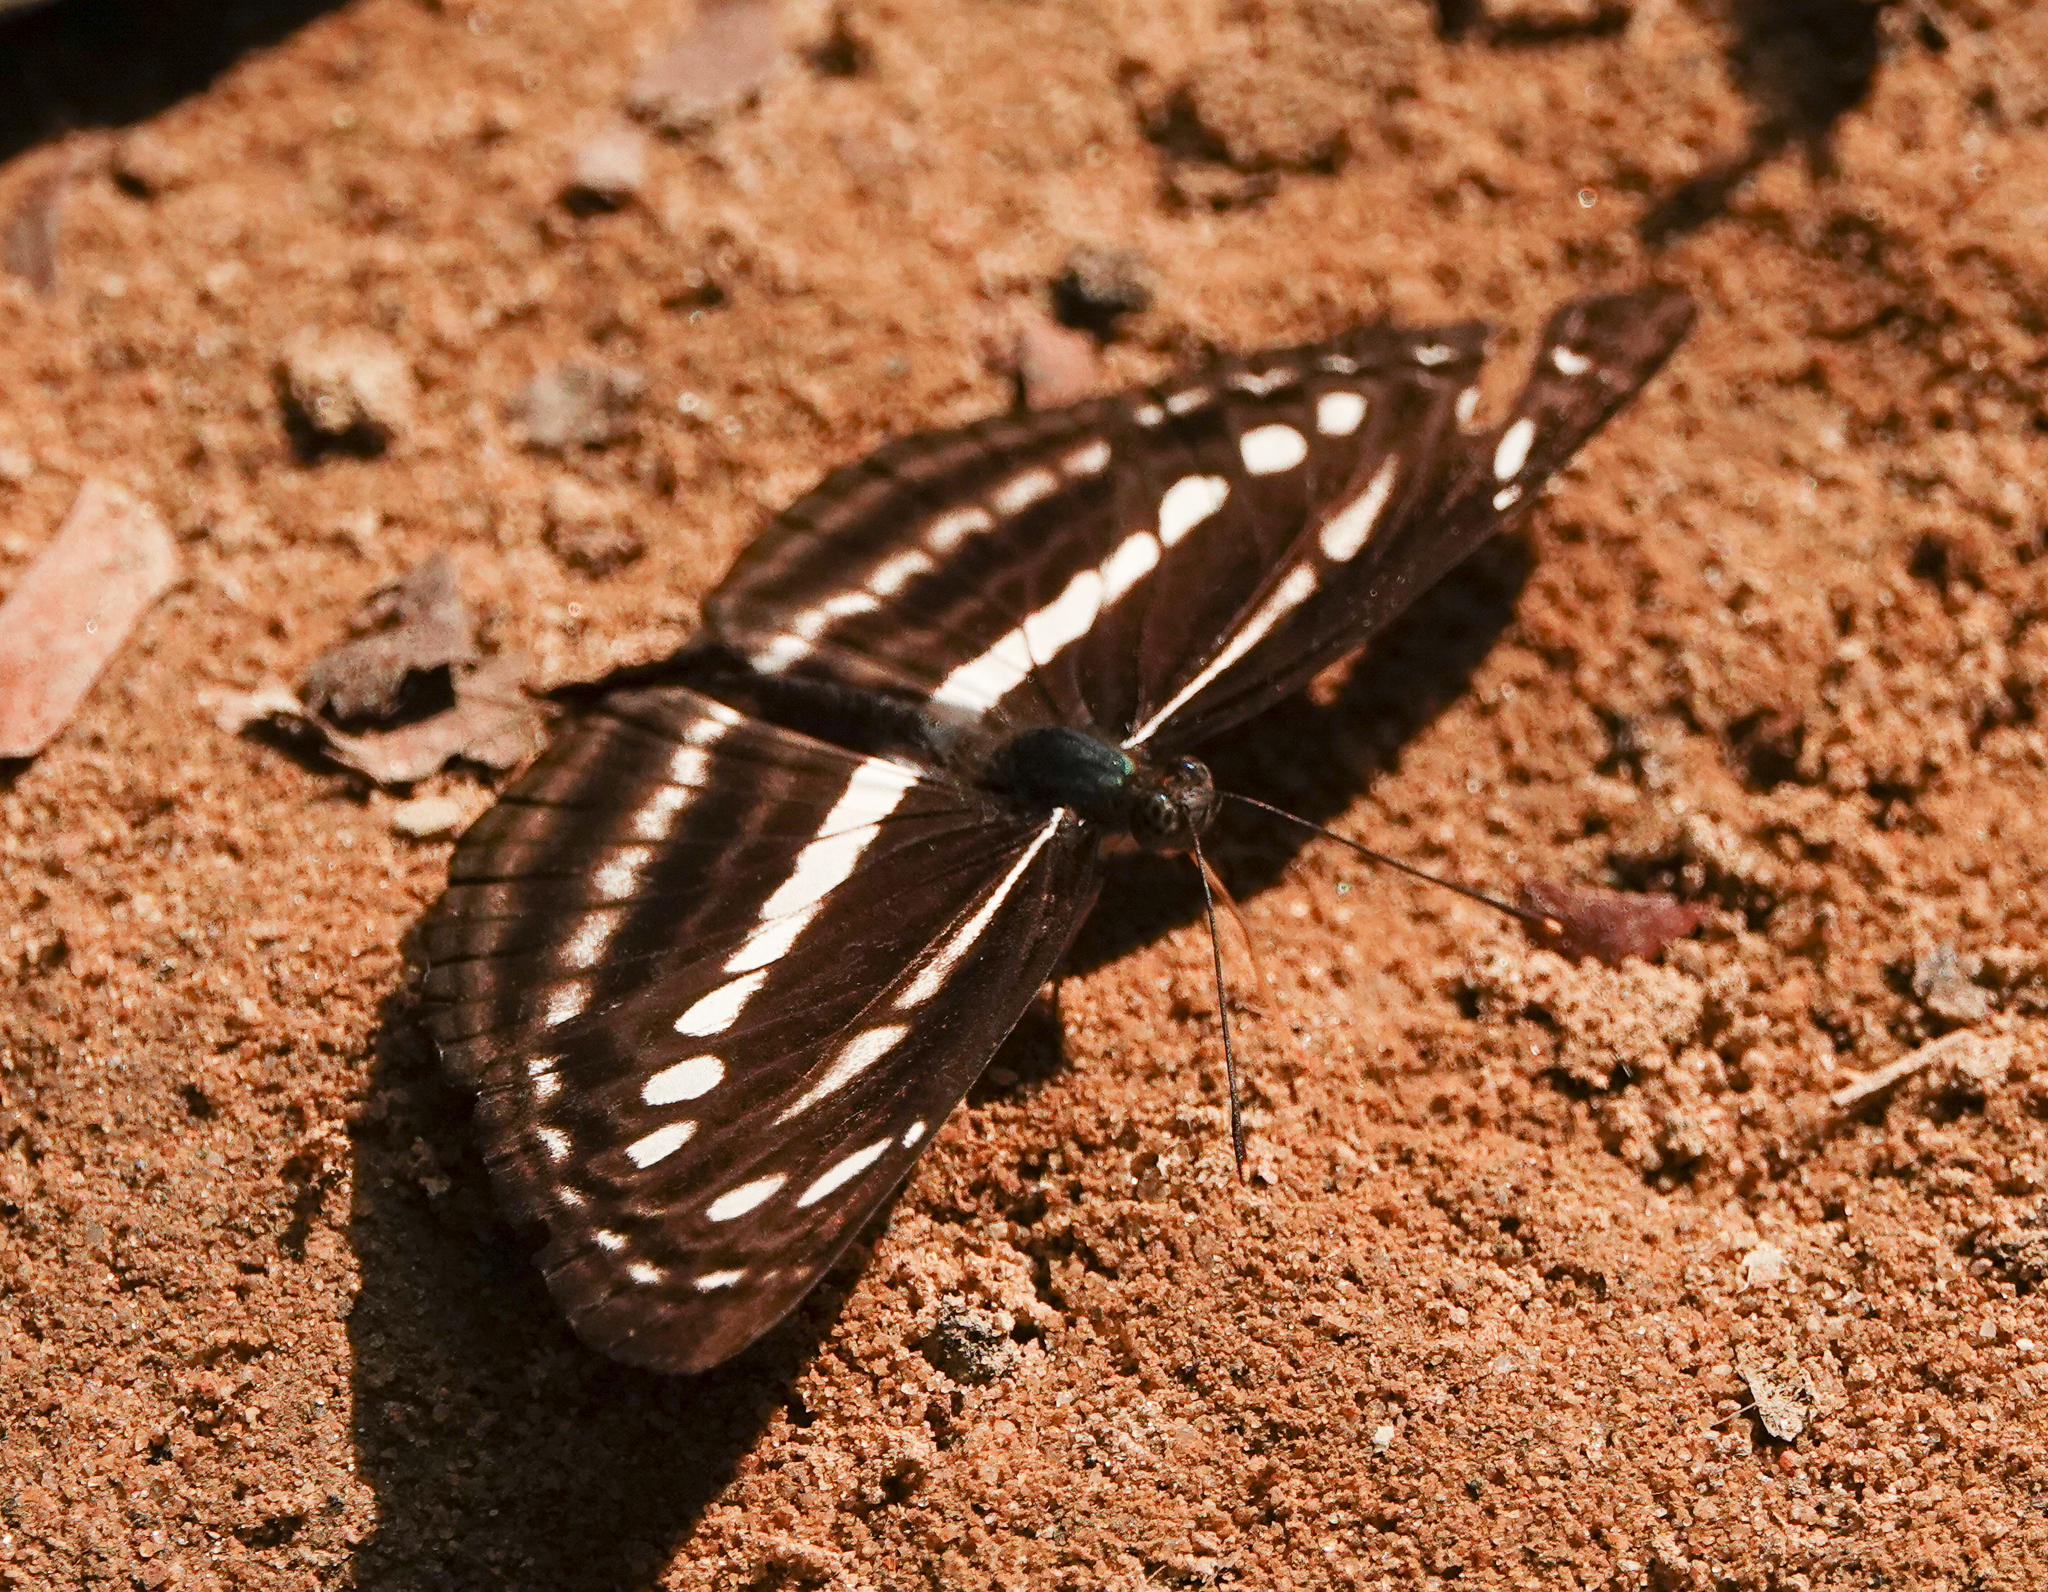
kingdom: Animalia
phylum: Arthropoda
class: Insecta
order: Lepidoptera
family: Nymphalidae
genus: Neptis
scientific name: Neptis clinia
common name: Southern sullied sailer
